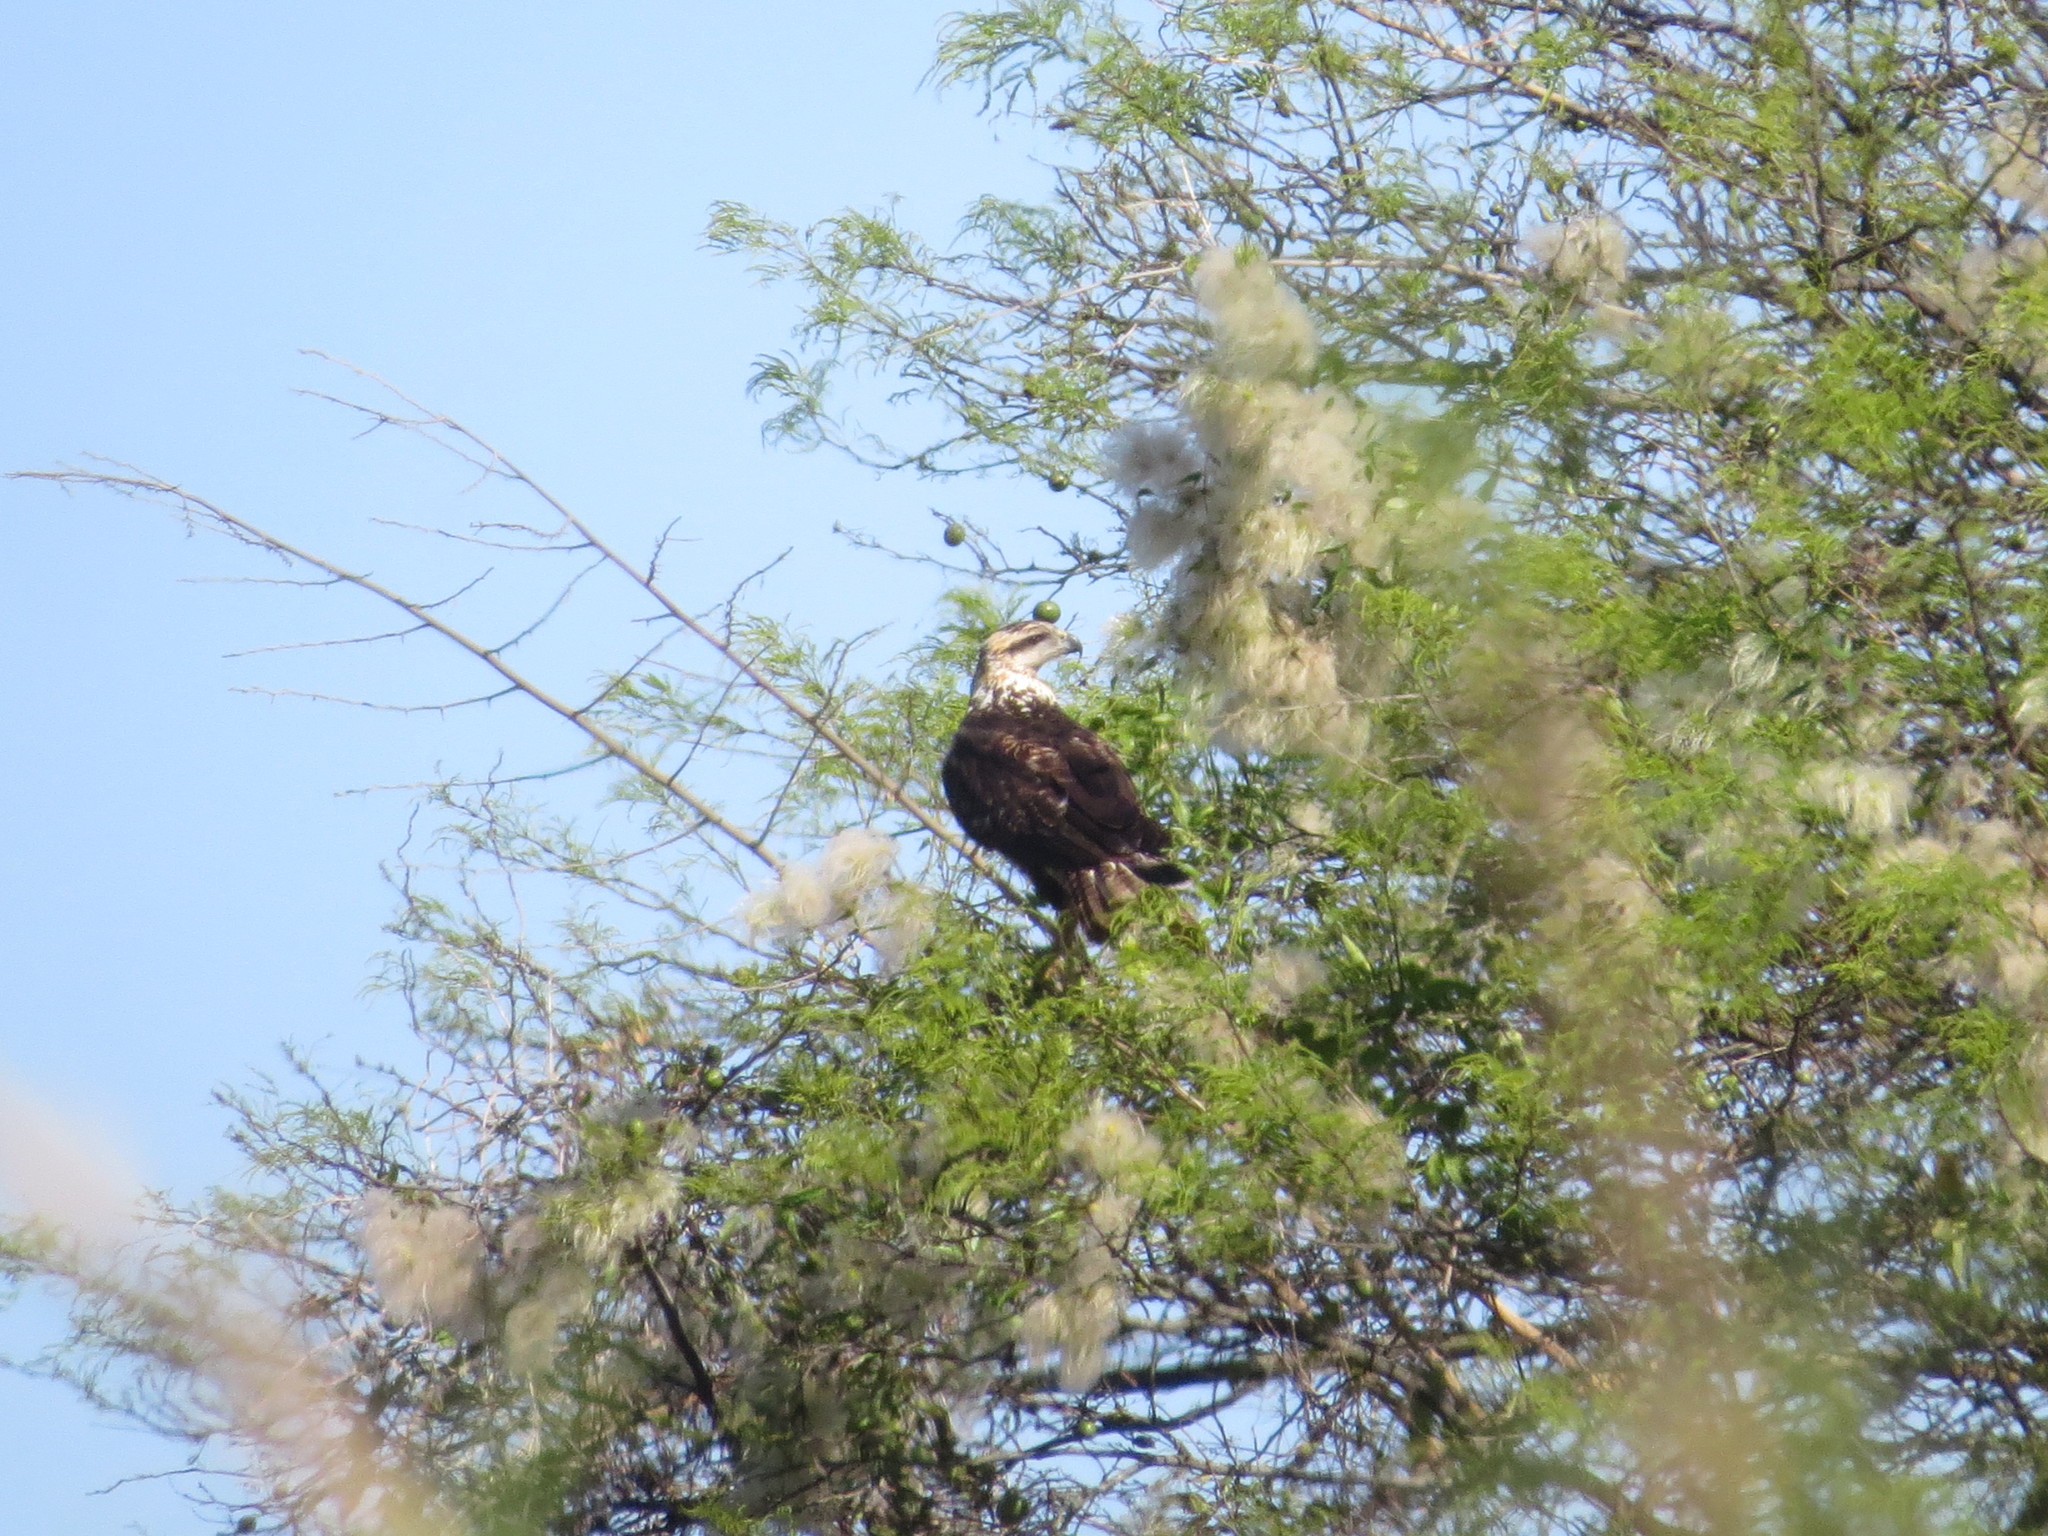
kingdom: Animalia
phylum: Chordata
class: Aves
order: Accipitriformes
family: Accipitridae
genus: Buteogallus
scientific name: Buteogallus meridionalis
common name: Savanna hawk
